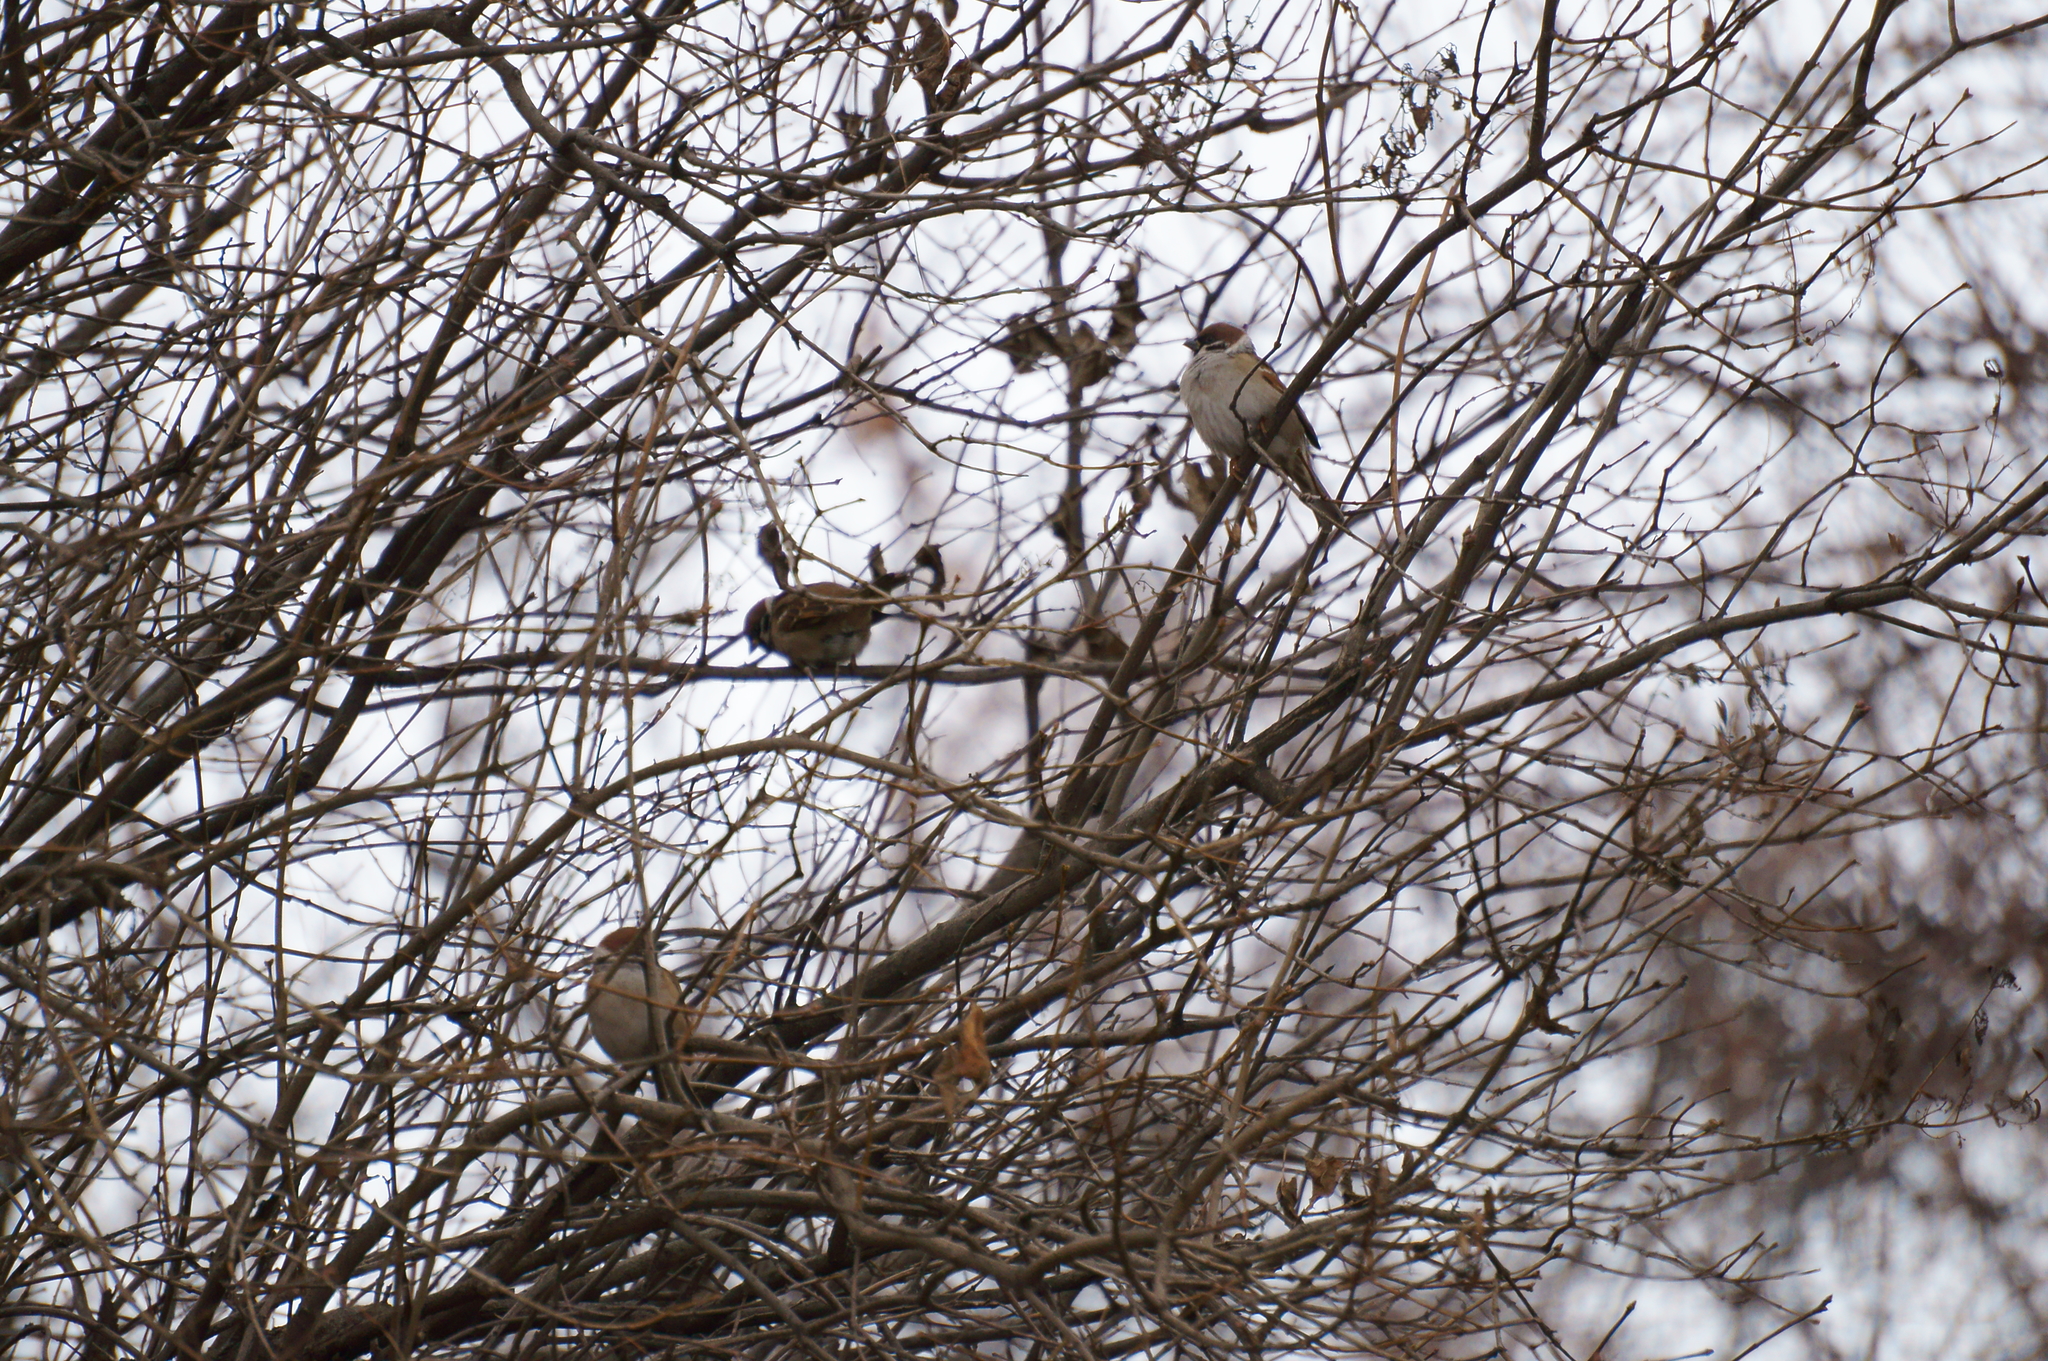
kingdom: Animalia
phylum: Chordata
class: Aves
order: Passeriformes
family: Passeridae
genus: Passer
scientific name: Passer montanus
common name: Eurasian tree sparrow
